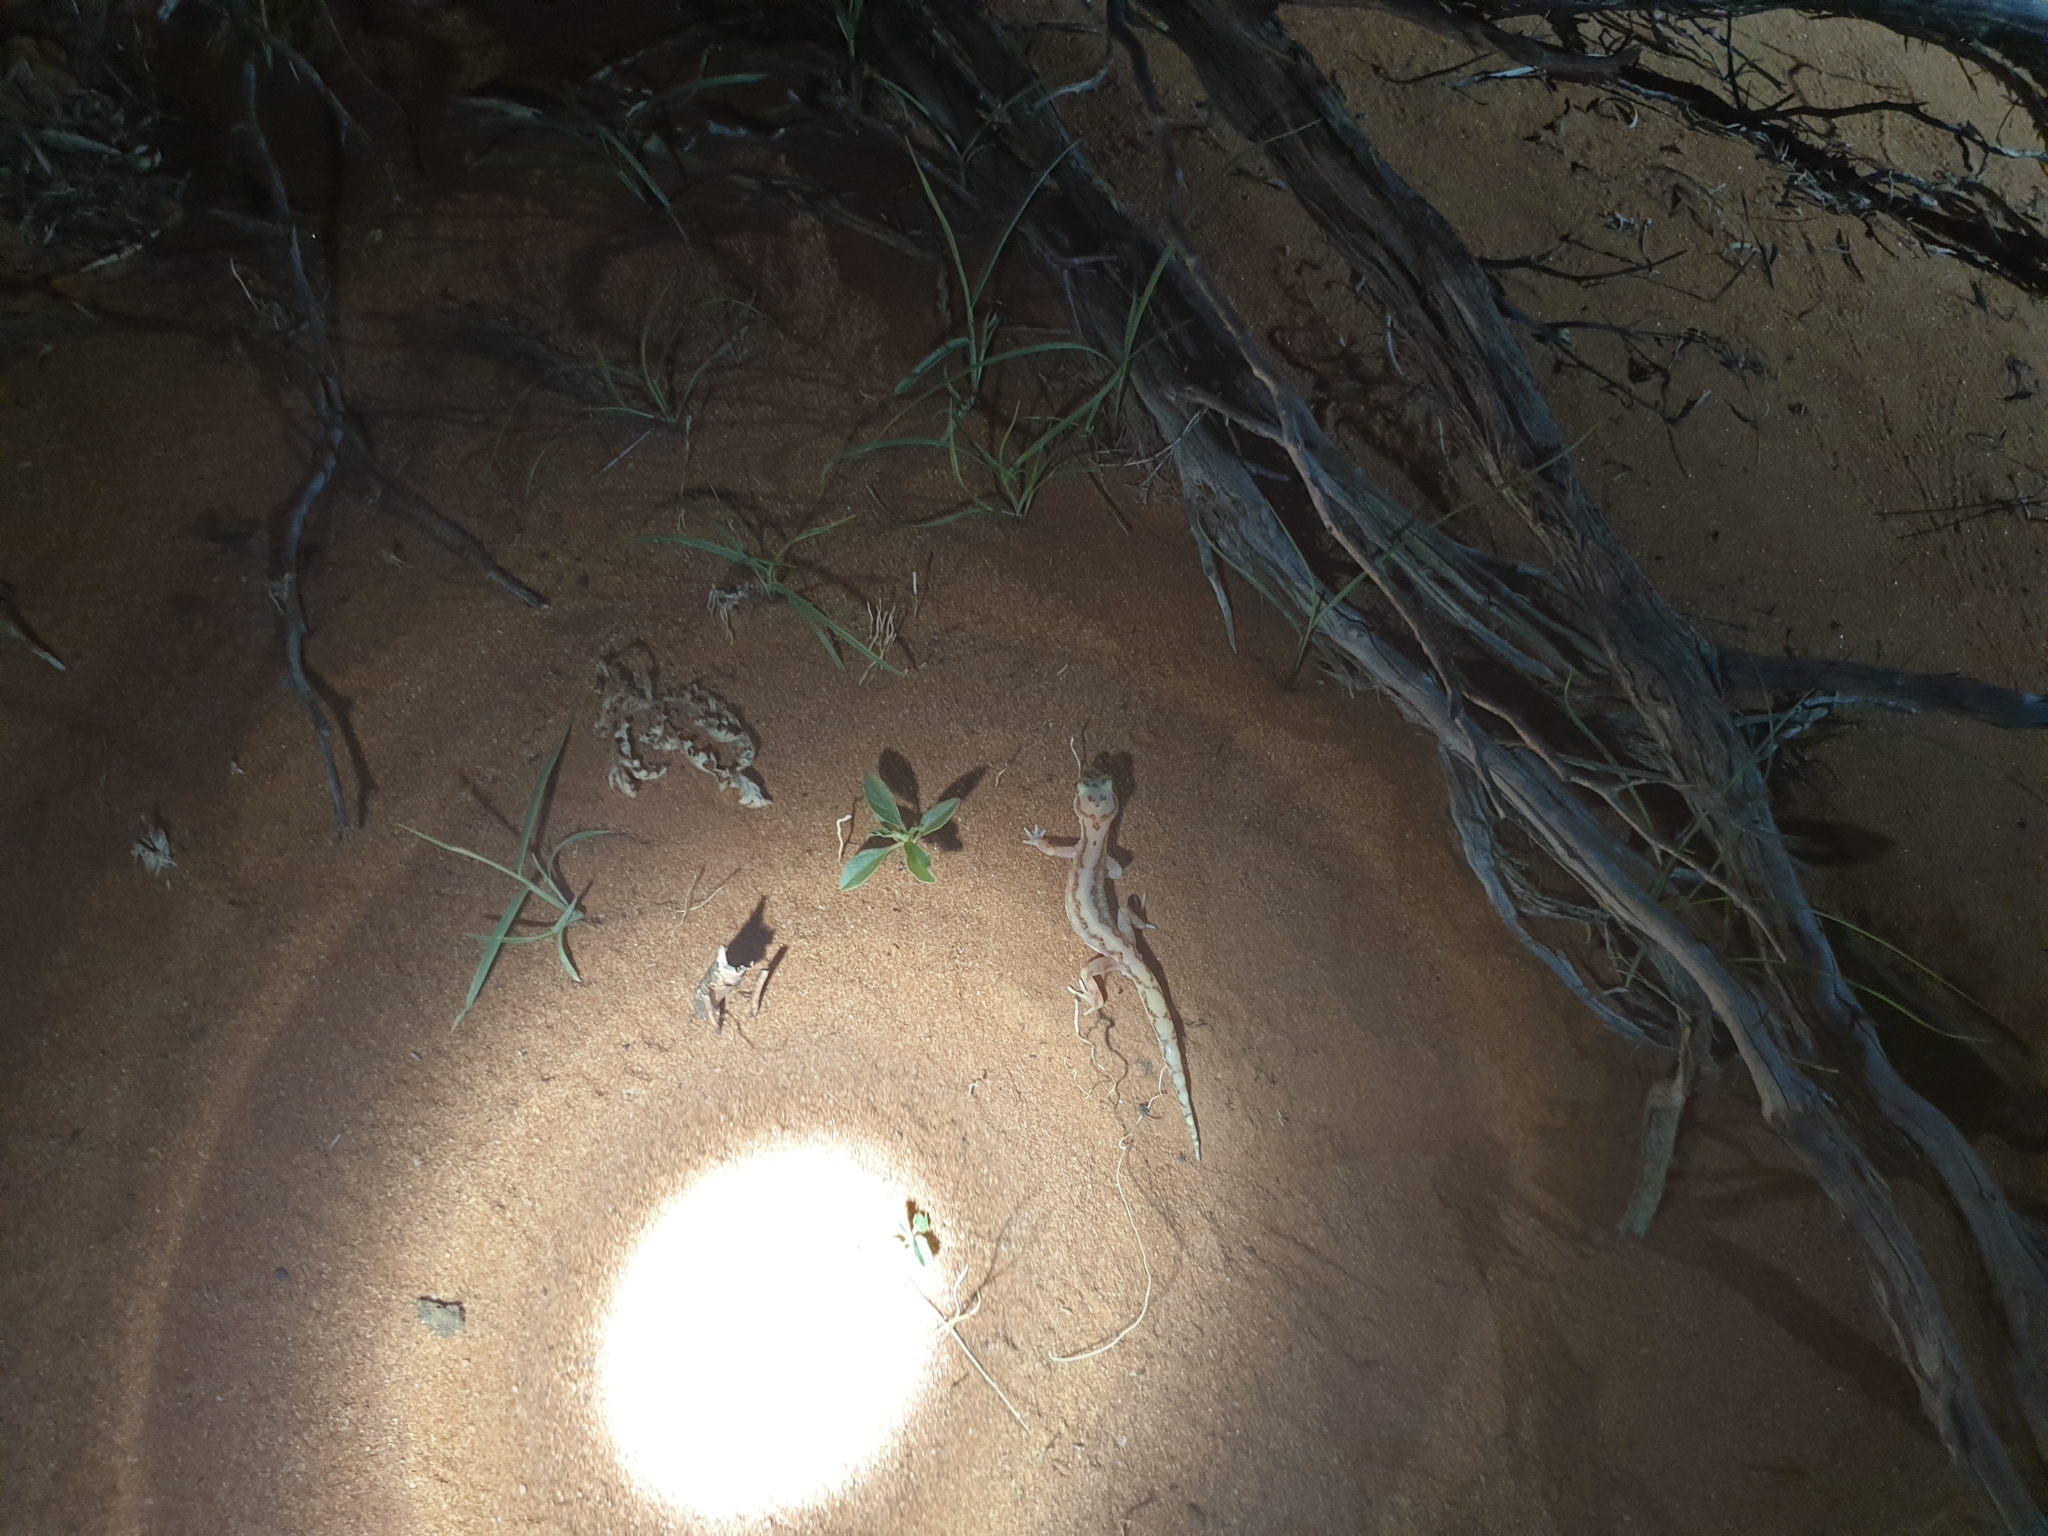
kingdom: Animalia
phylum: Chordata
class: Squamata
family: Diplodactylidae
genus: Lucasium
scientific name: Lucasium damaeum
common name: Beaded gecko
